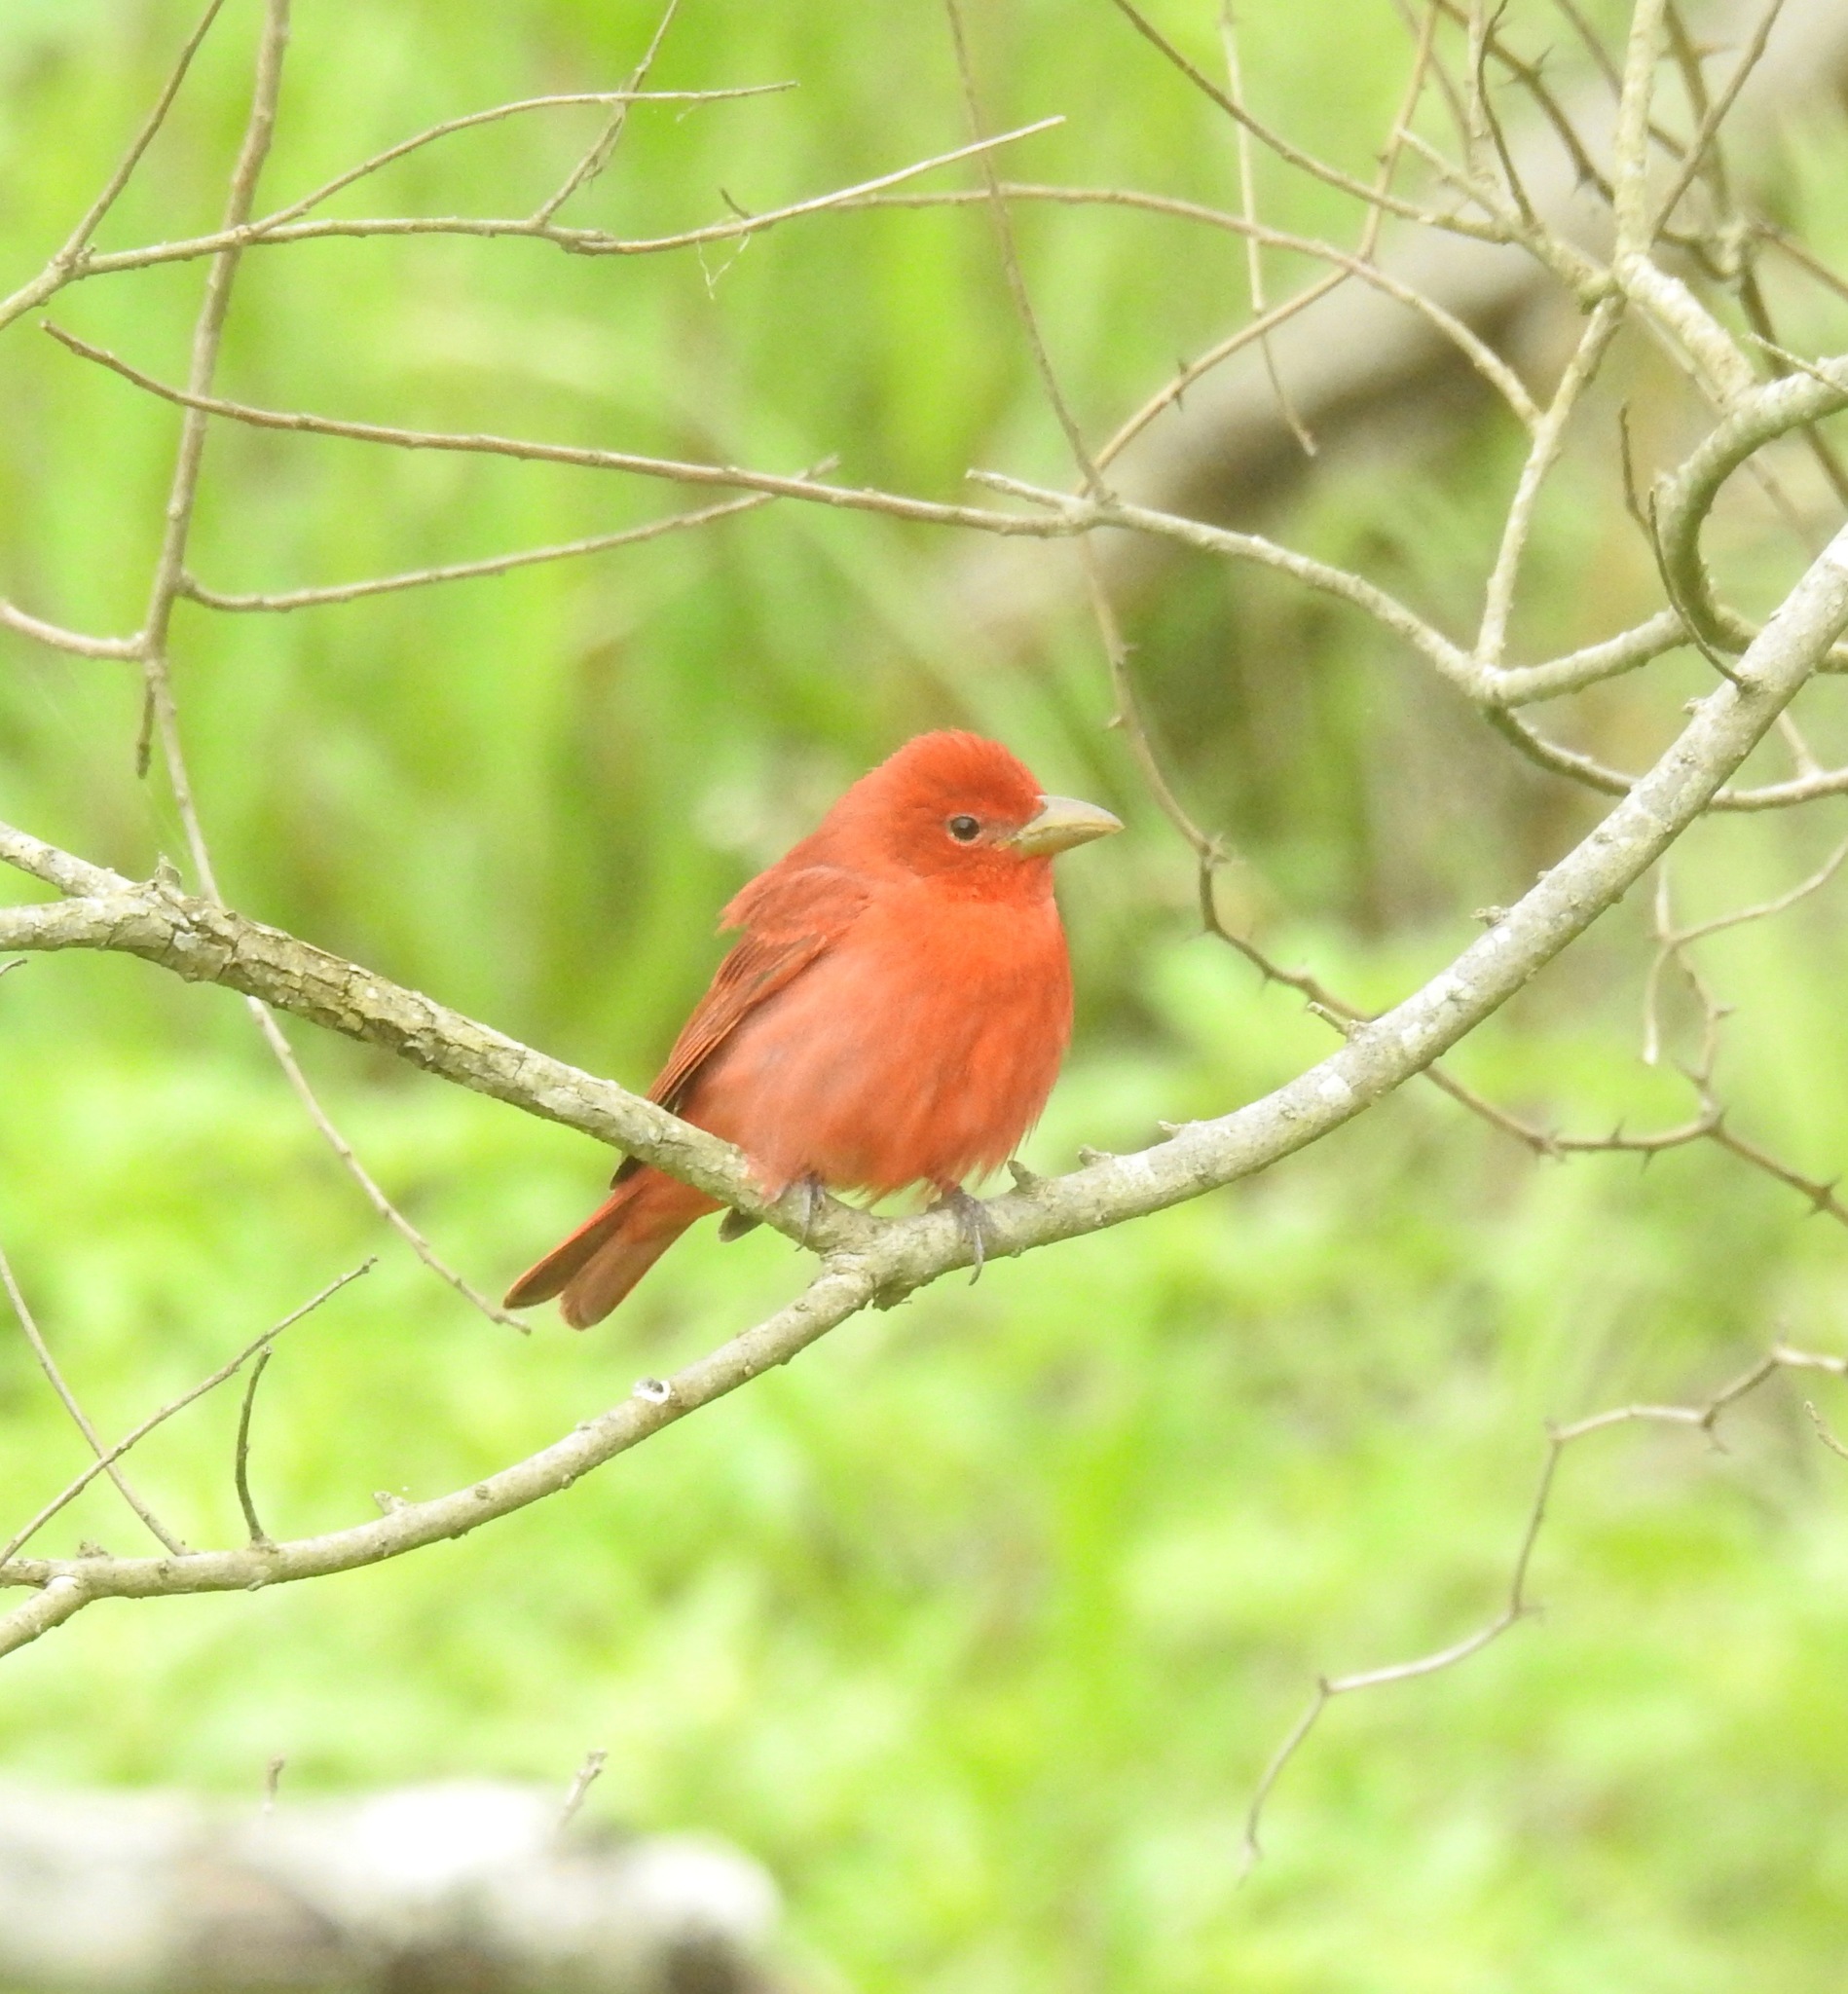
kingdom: Animalia
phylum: Chordata
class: Aves
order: Passeriformes
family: Cardinalidae
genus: Piranga
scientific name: Piranga rubra
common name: Summer tanager
